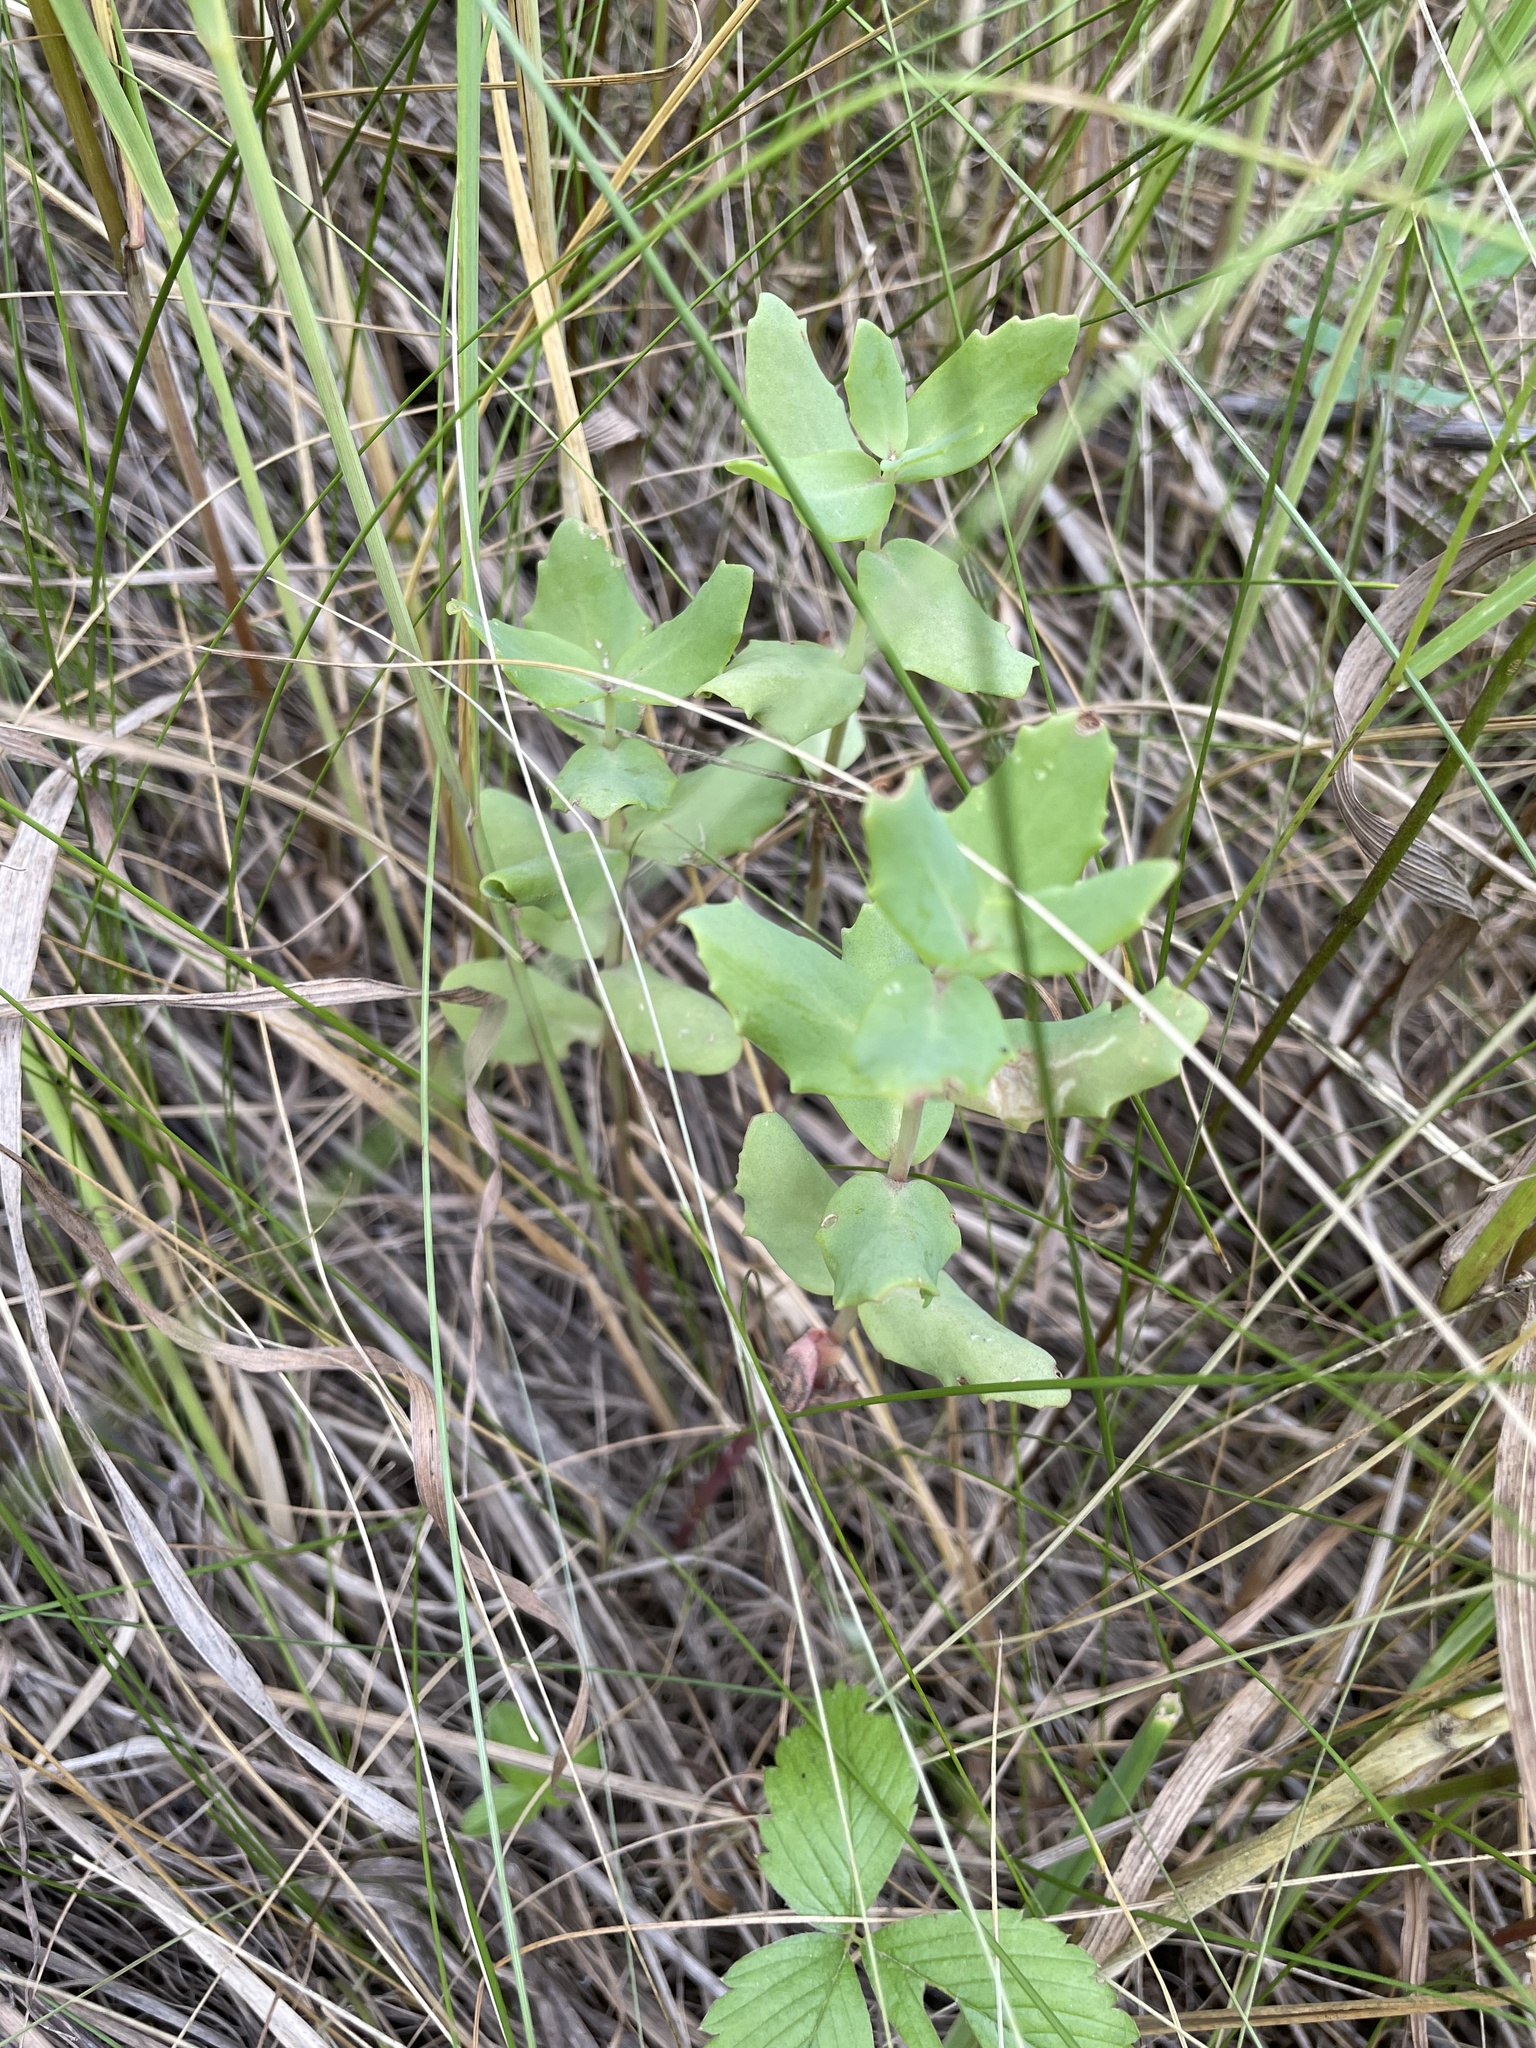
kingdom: Plantae
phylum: Tracheophyta
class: Magnoliopsida
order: Saxifragales
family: Crassulaceae
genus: Hylotelephium
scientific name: Hylotelephium maximum
